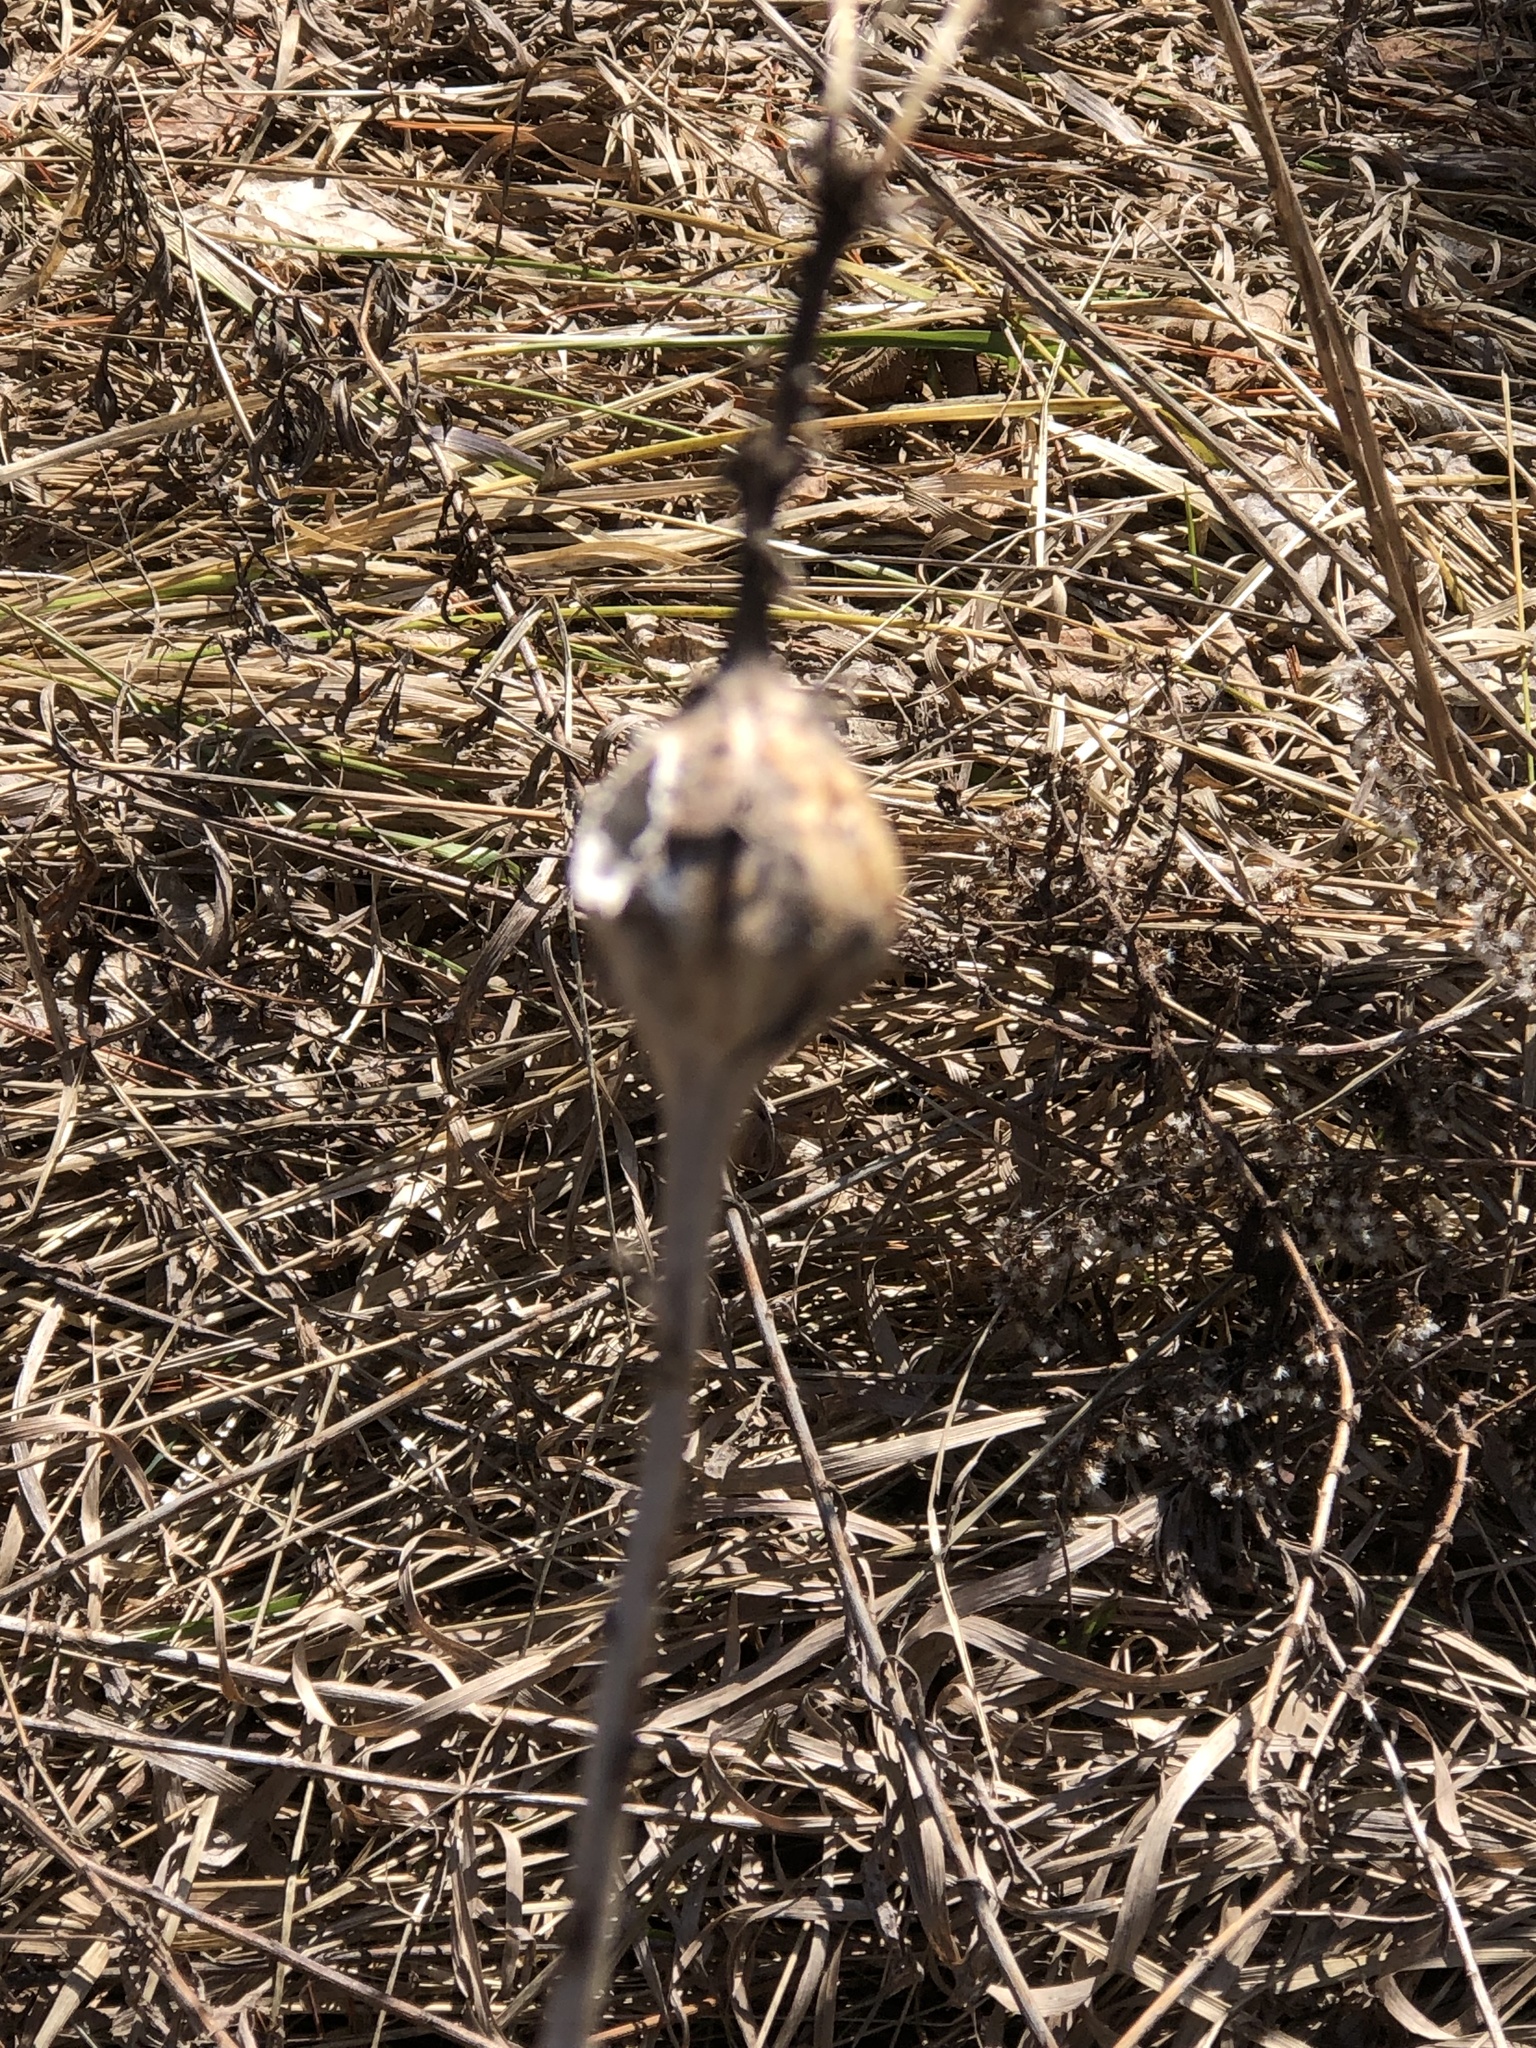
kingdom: Animalia
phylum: Arthropoda
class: Insecta
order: Diptera
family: Tephritidae
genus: Eurosta
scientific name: Eurosta solidaginis
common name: Goldenrod gall fly
